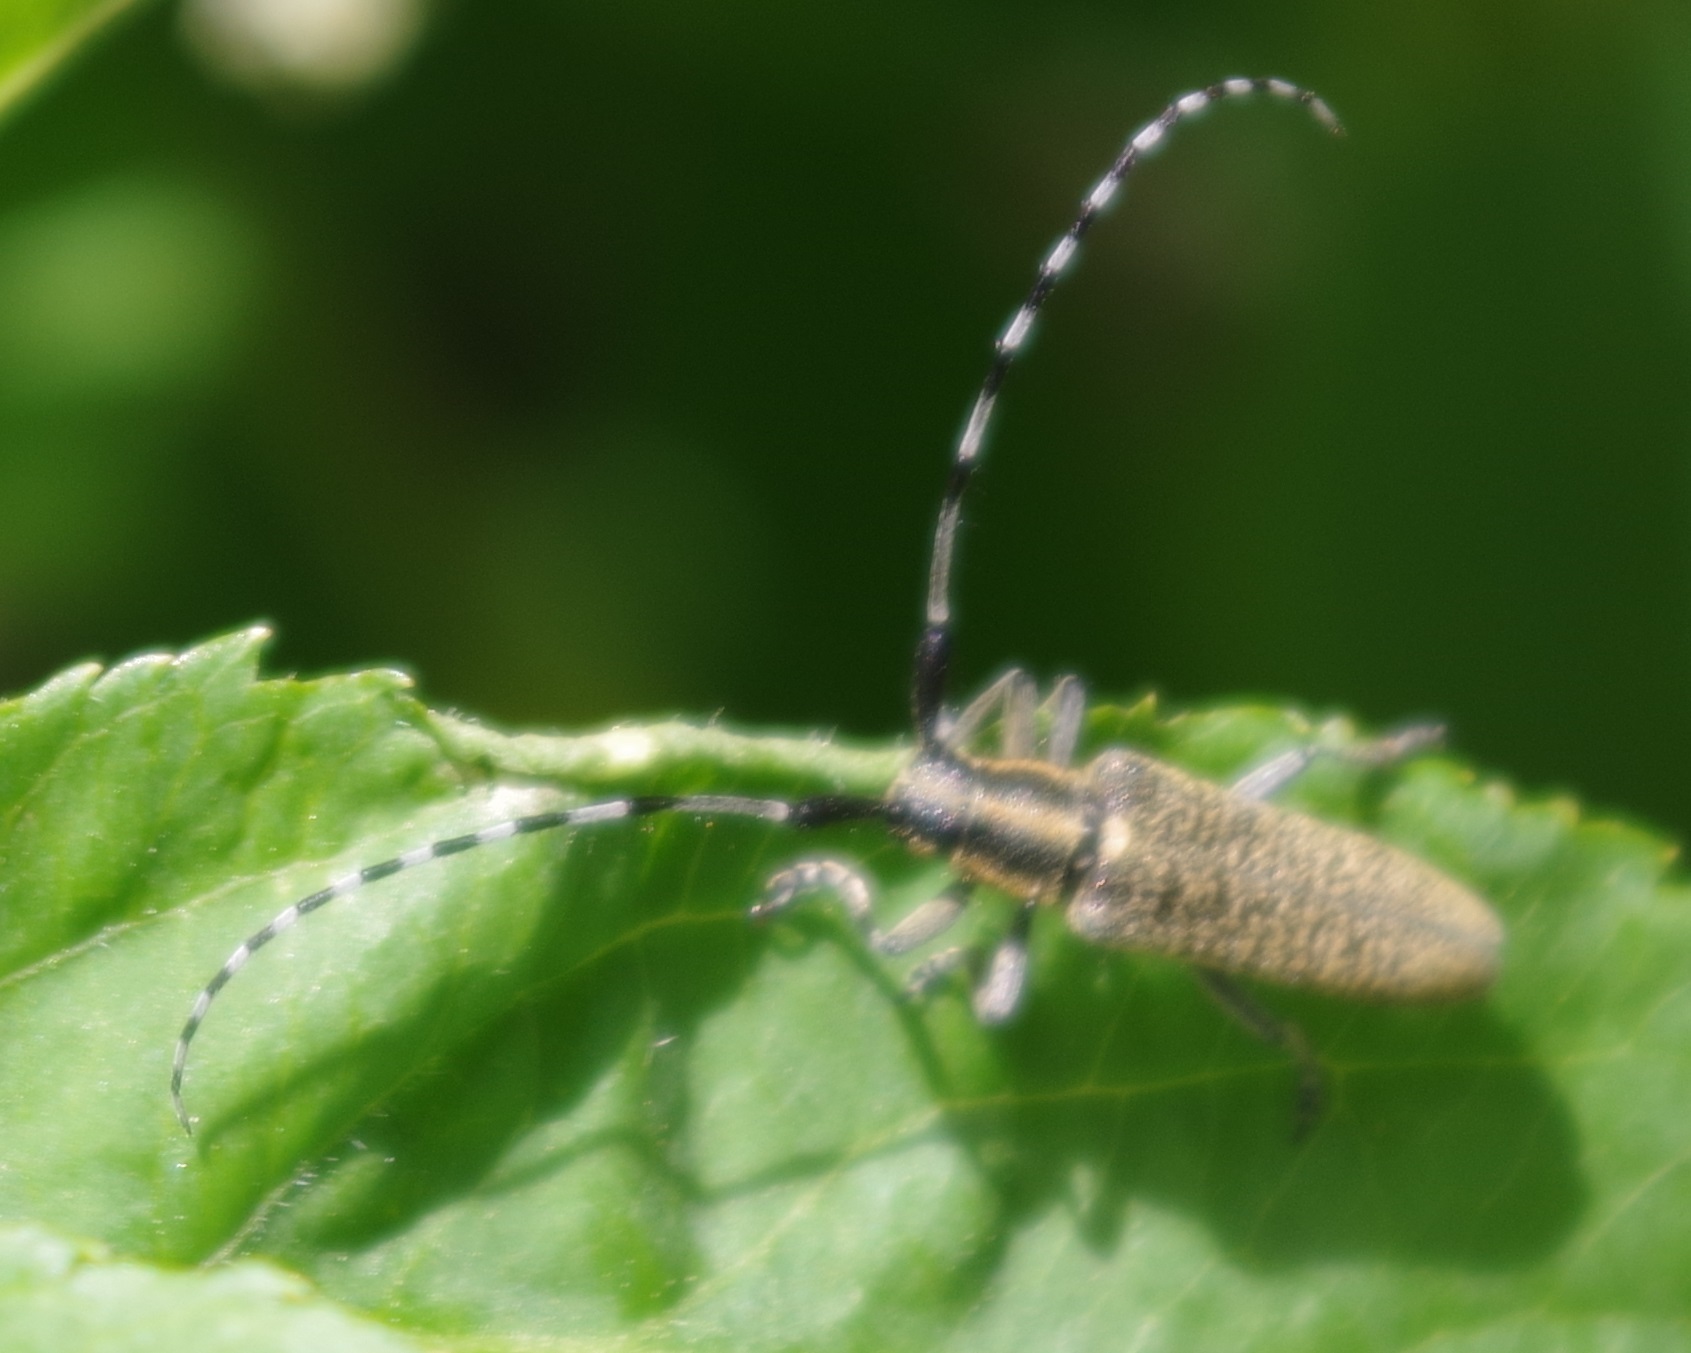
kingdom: Animalia
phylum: Arthropoda
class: Insecta
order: Coleoptera
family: Cerambycidae
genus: Agapanthia
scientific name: Agapanthia villosoviridescens
